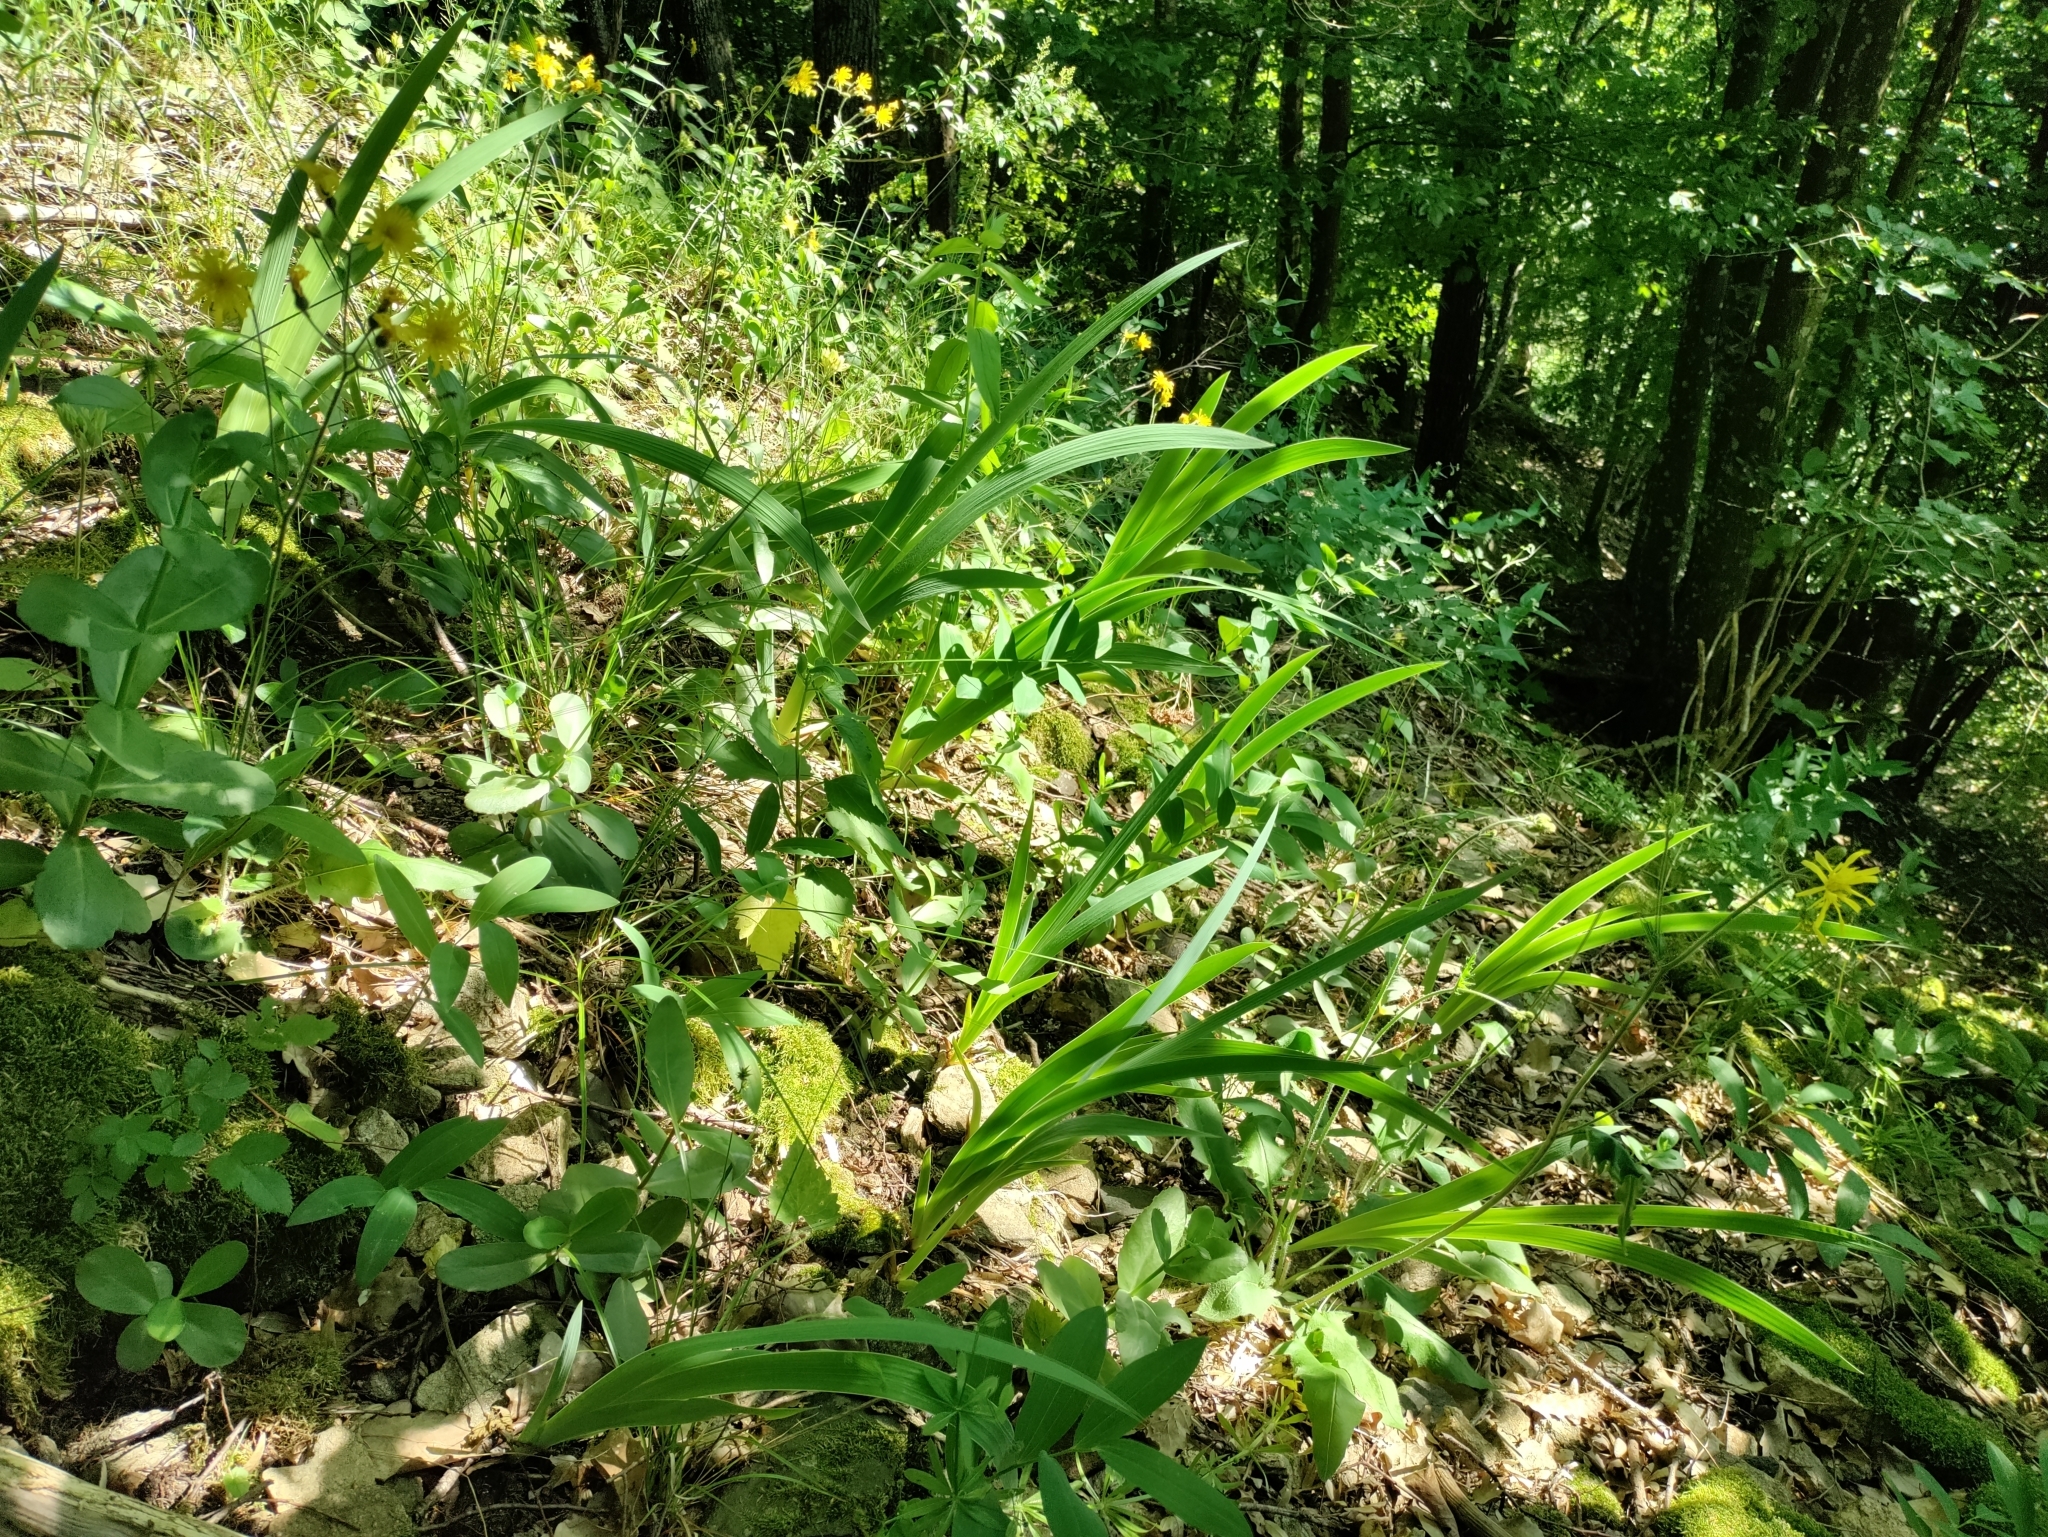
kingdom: Plantae
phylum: Tracheophyta
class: Liliopsida
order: Asparagales
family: Iridaceae
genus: Iris
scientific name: Iris variegata
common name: Hungarian iris
